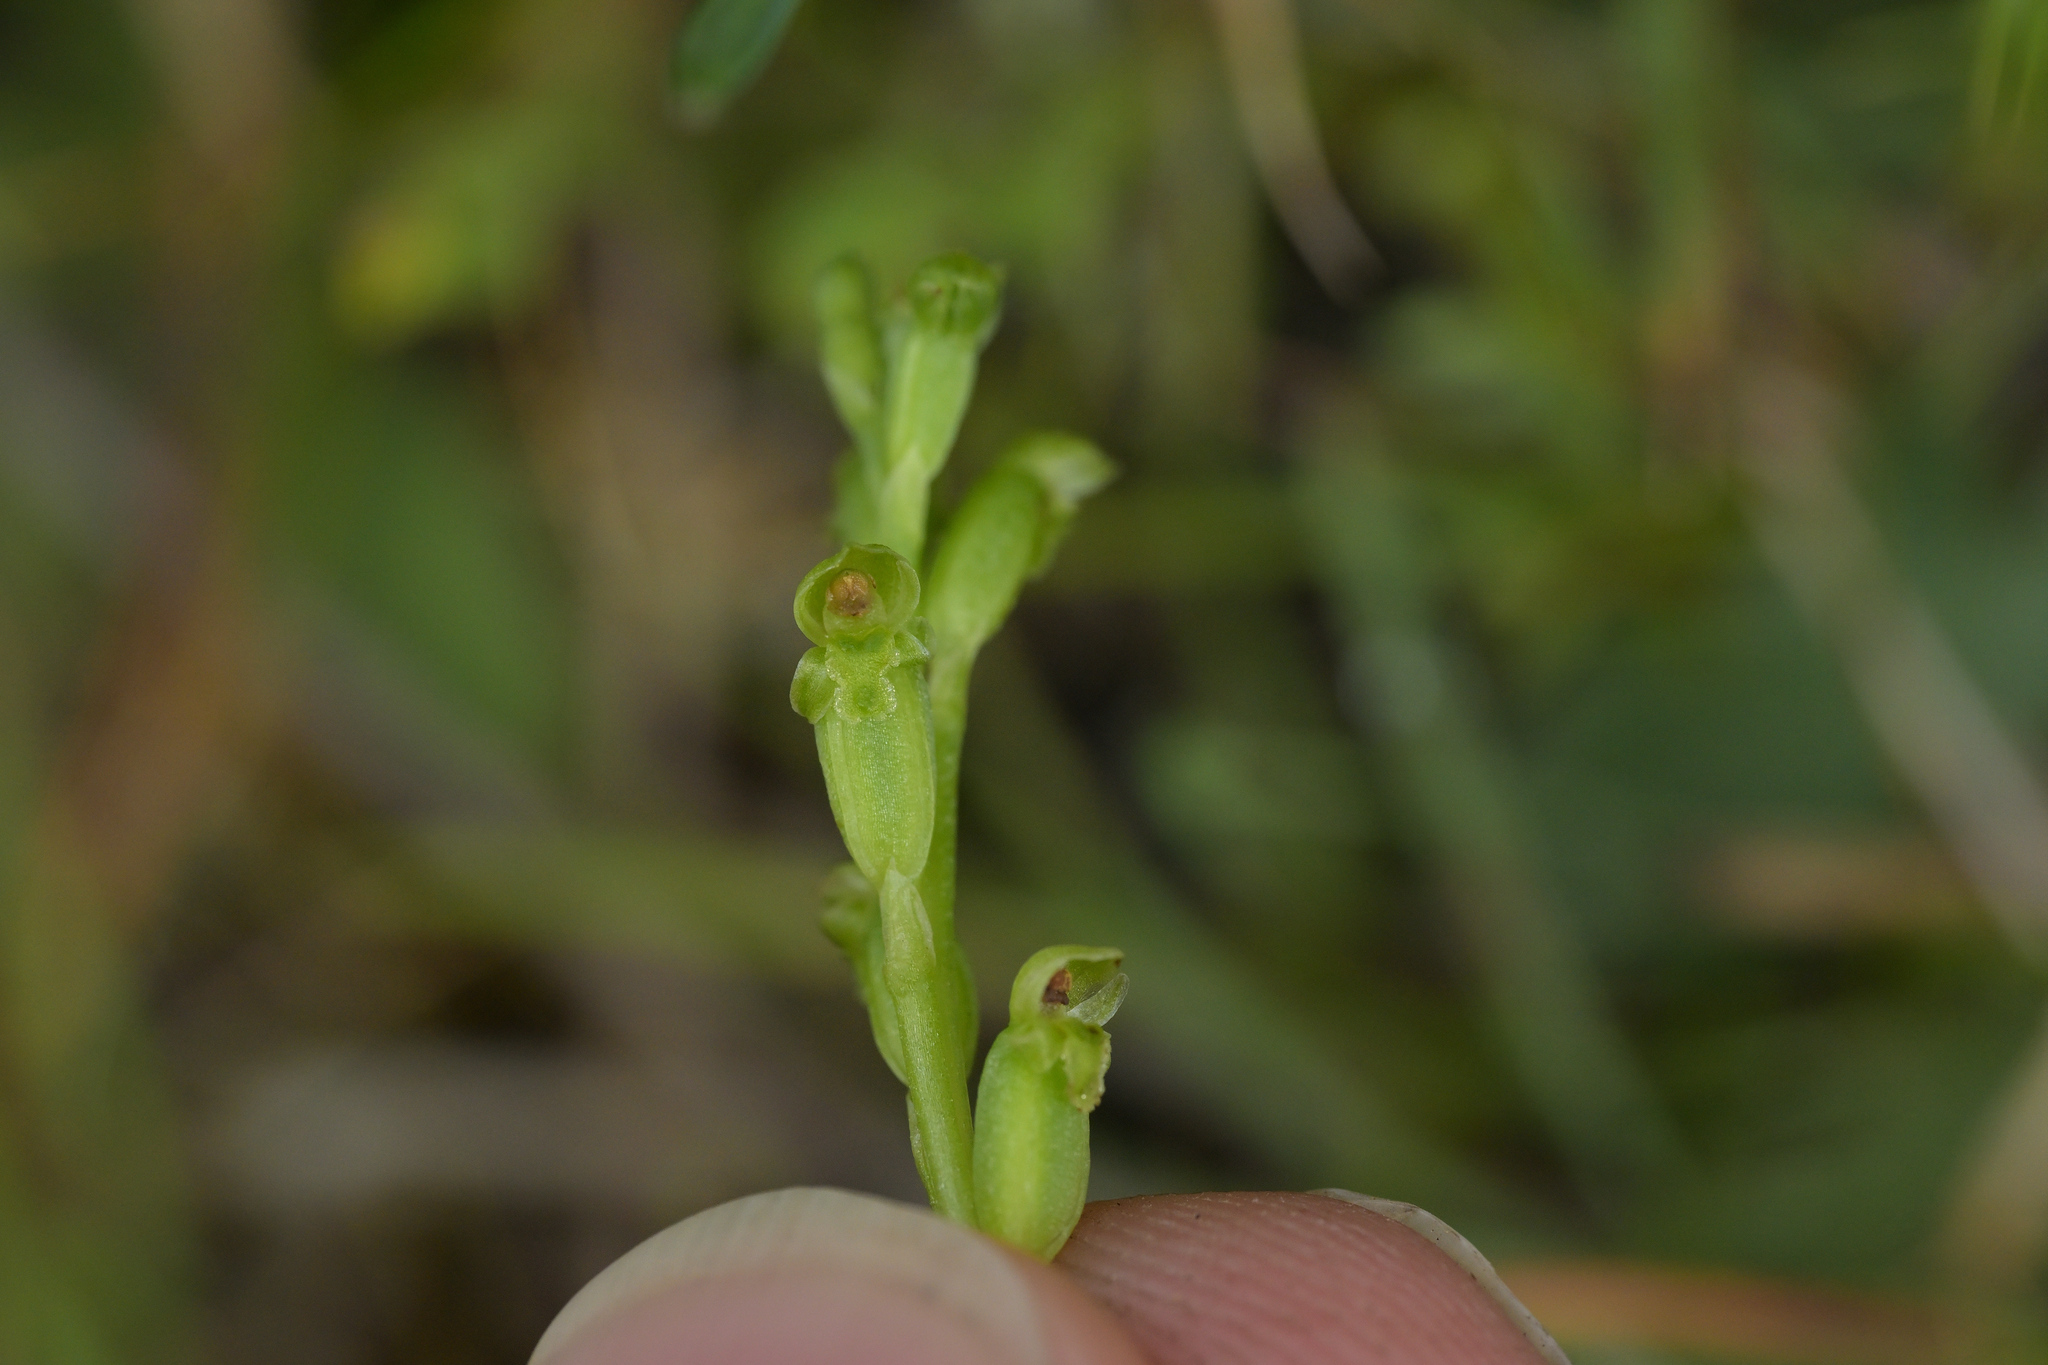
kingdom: Plantae
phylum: Tracheophyta
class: Liliopsida
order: Asparagales
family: Orchidaceae
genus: Microtis
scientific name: Microtis unifolia
